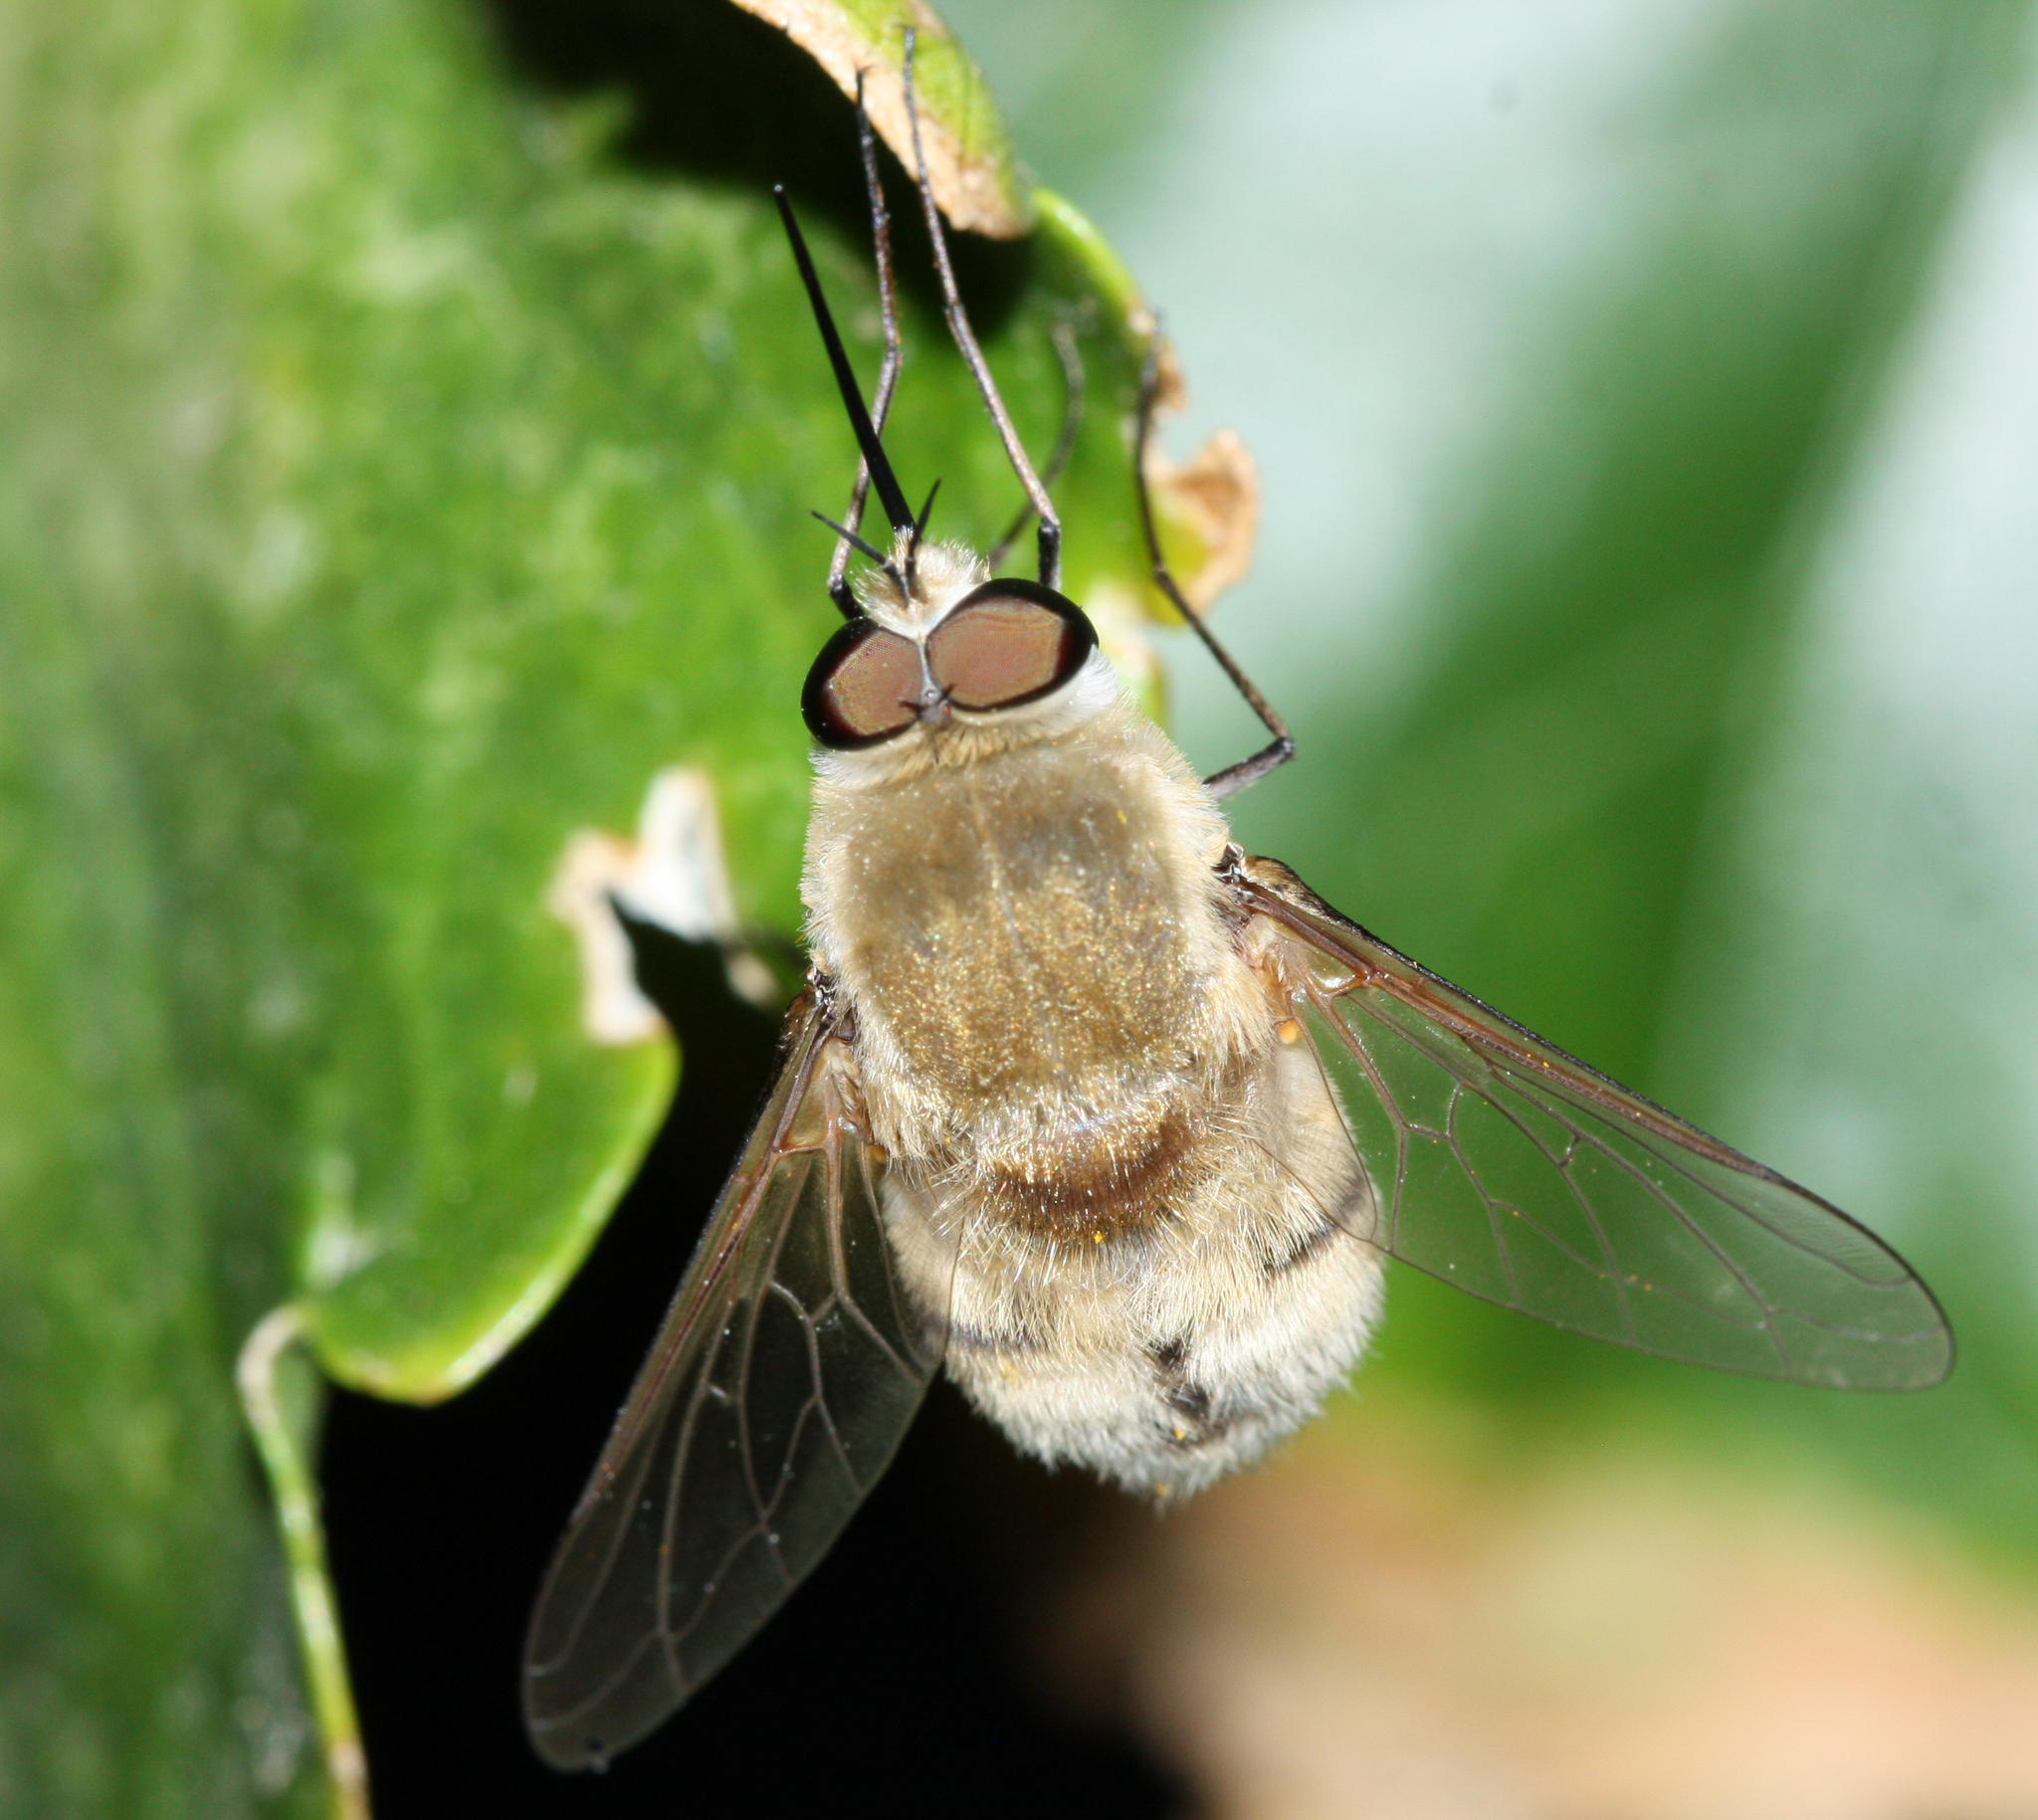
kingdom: Animalia
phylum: Arthropoda
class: Insecta
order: Diptera
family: Bombyliidae
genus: Heterostylum
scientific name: Heterostylum robustum
